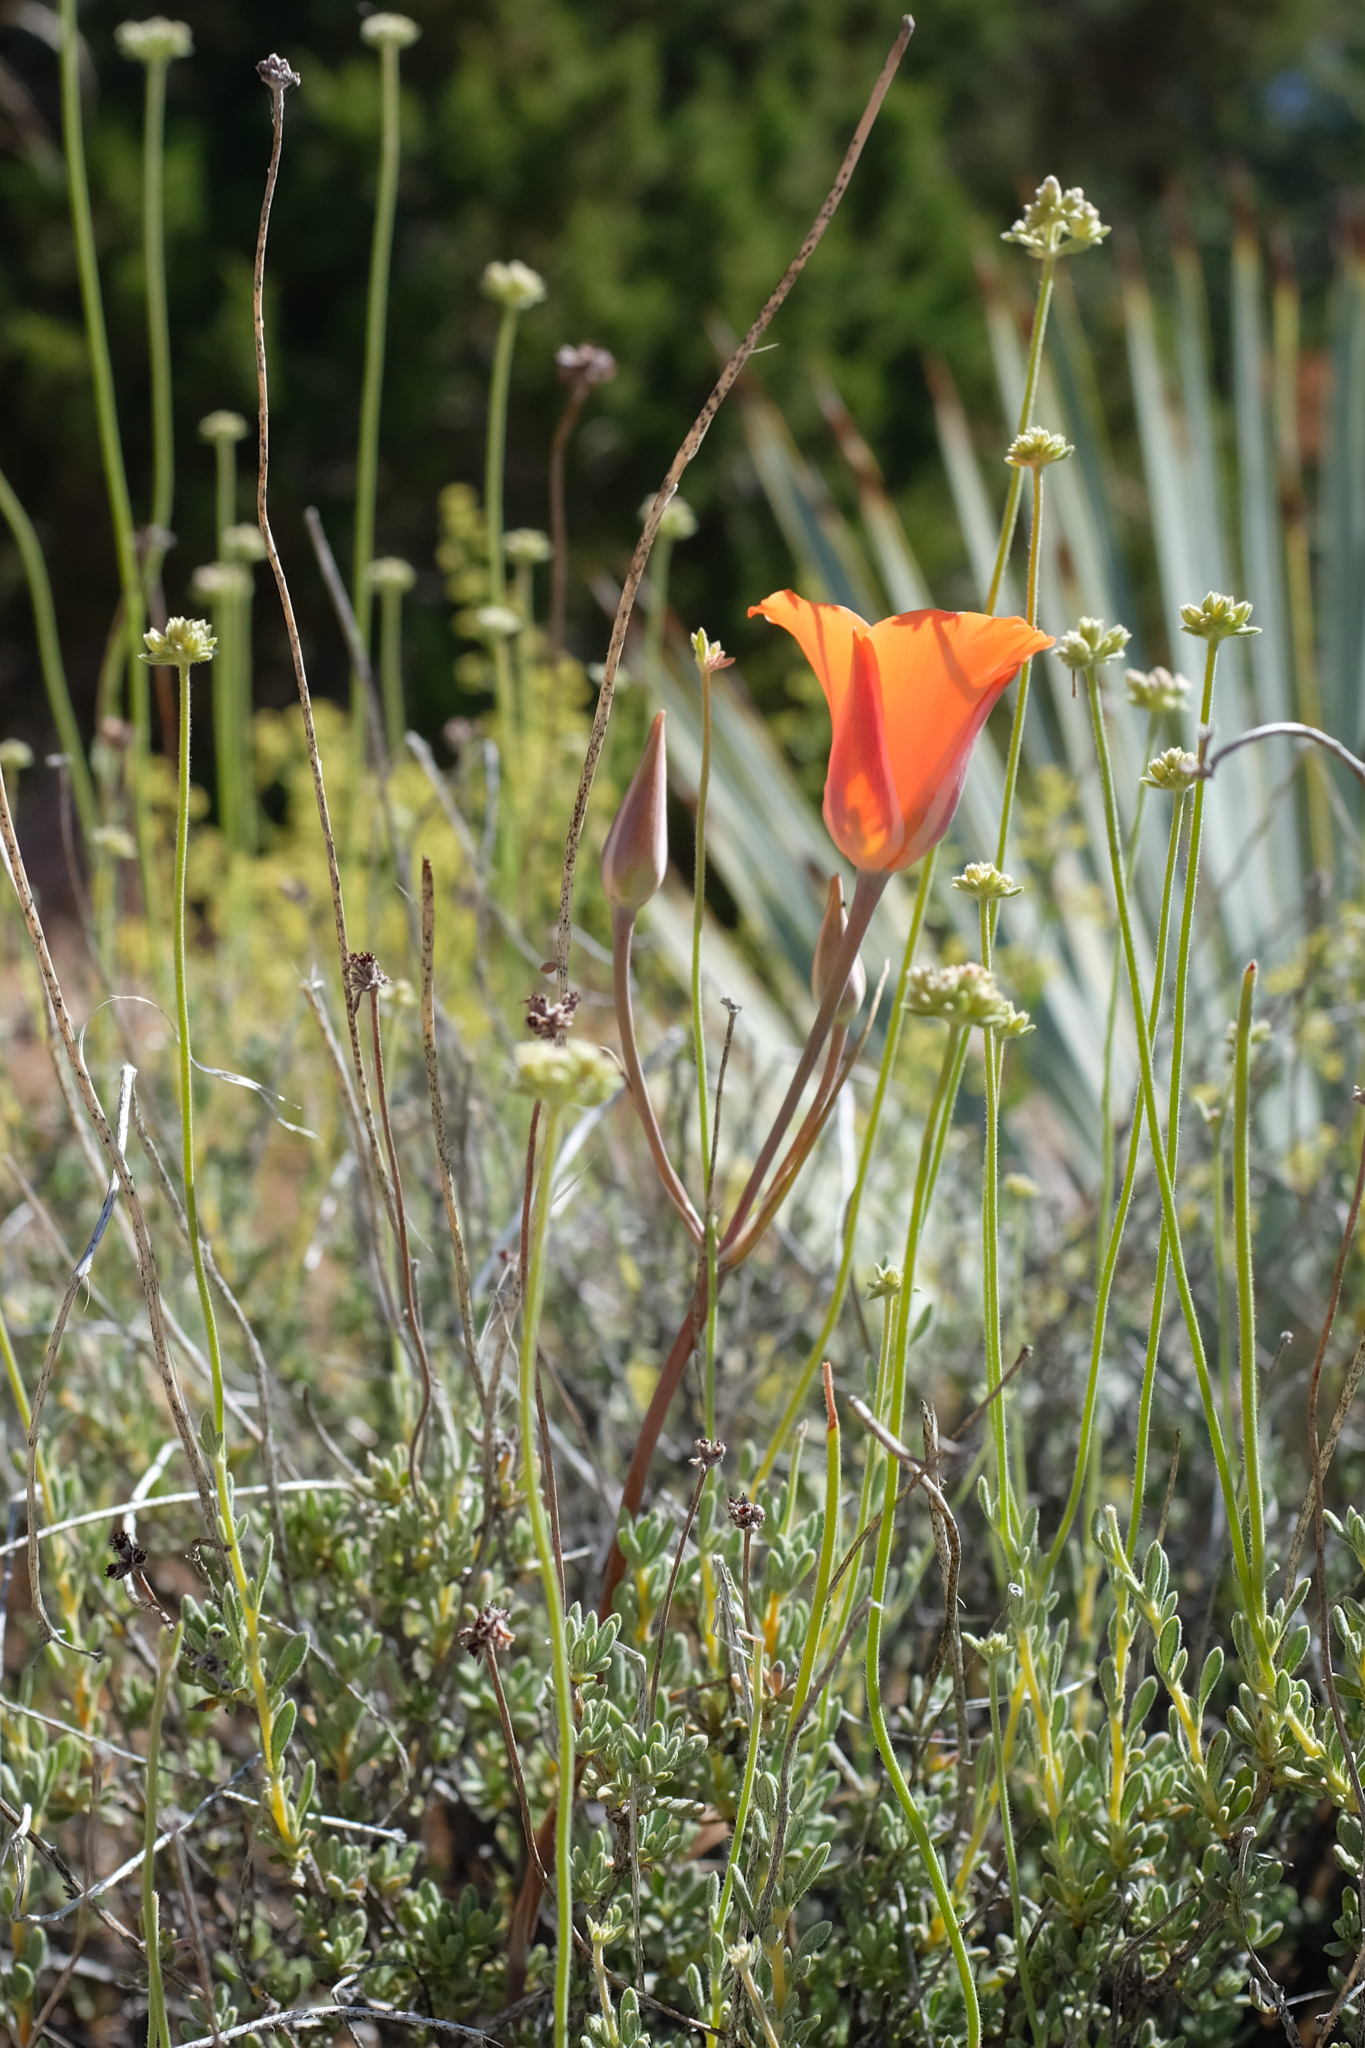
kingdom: Plantae
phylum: Tracheophyta
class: Liliopsida
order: Liliales
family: Liliaceae
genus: Calochortus
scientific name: Calochortus kennedyi
